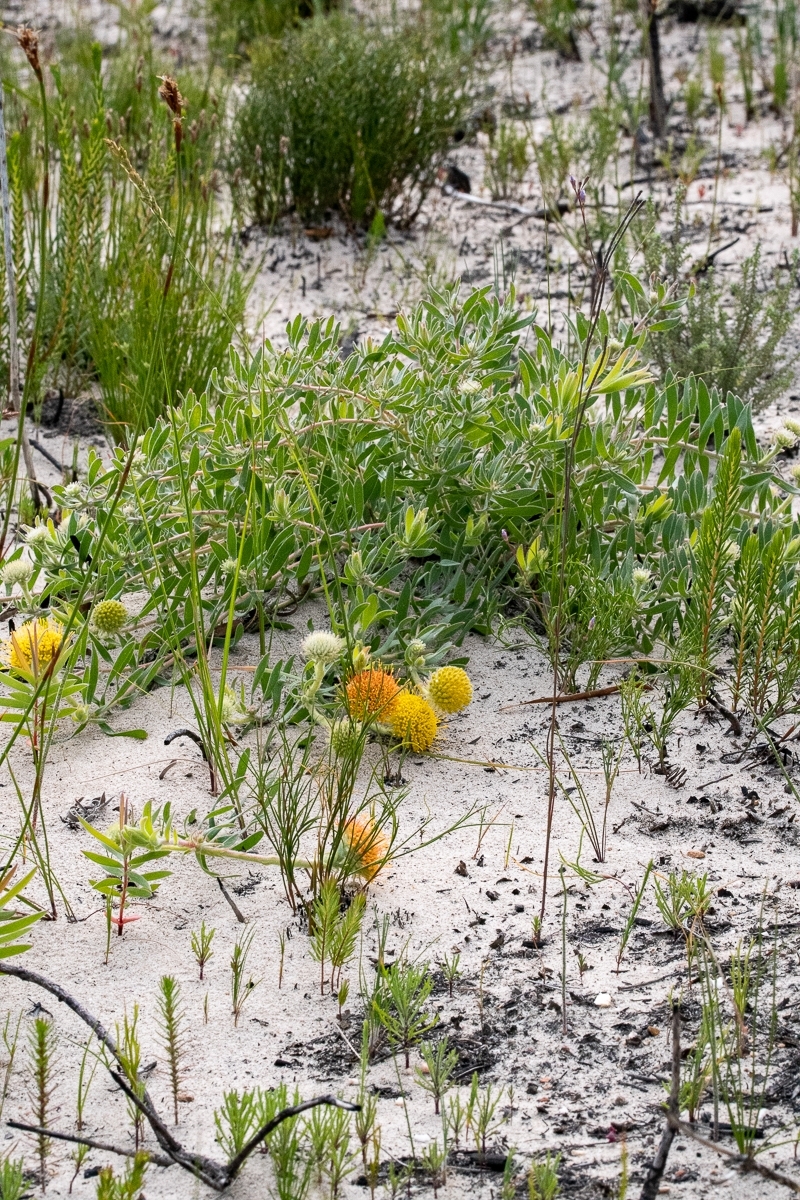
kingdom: Plantae
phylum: Tracheophyta
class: Magnoliopsida
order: Proteales
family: Proteaceae
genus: Leucospermum
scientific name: Leucospermum prostratum
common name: Yellow-trailing pincushion
